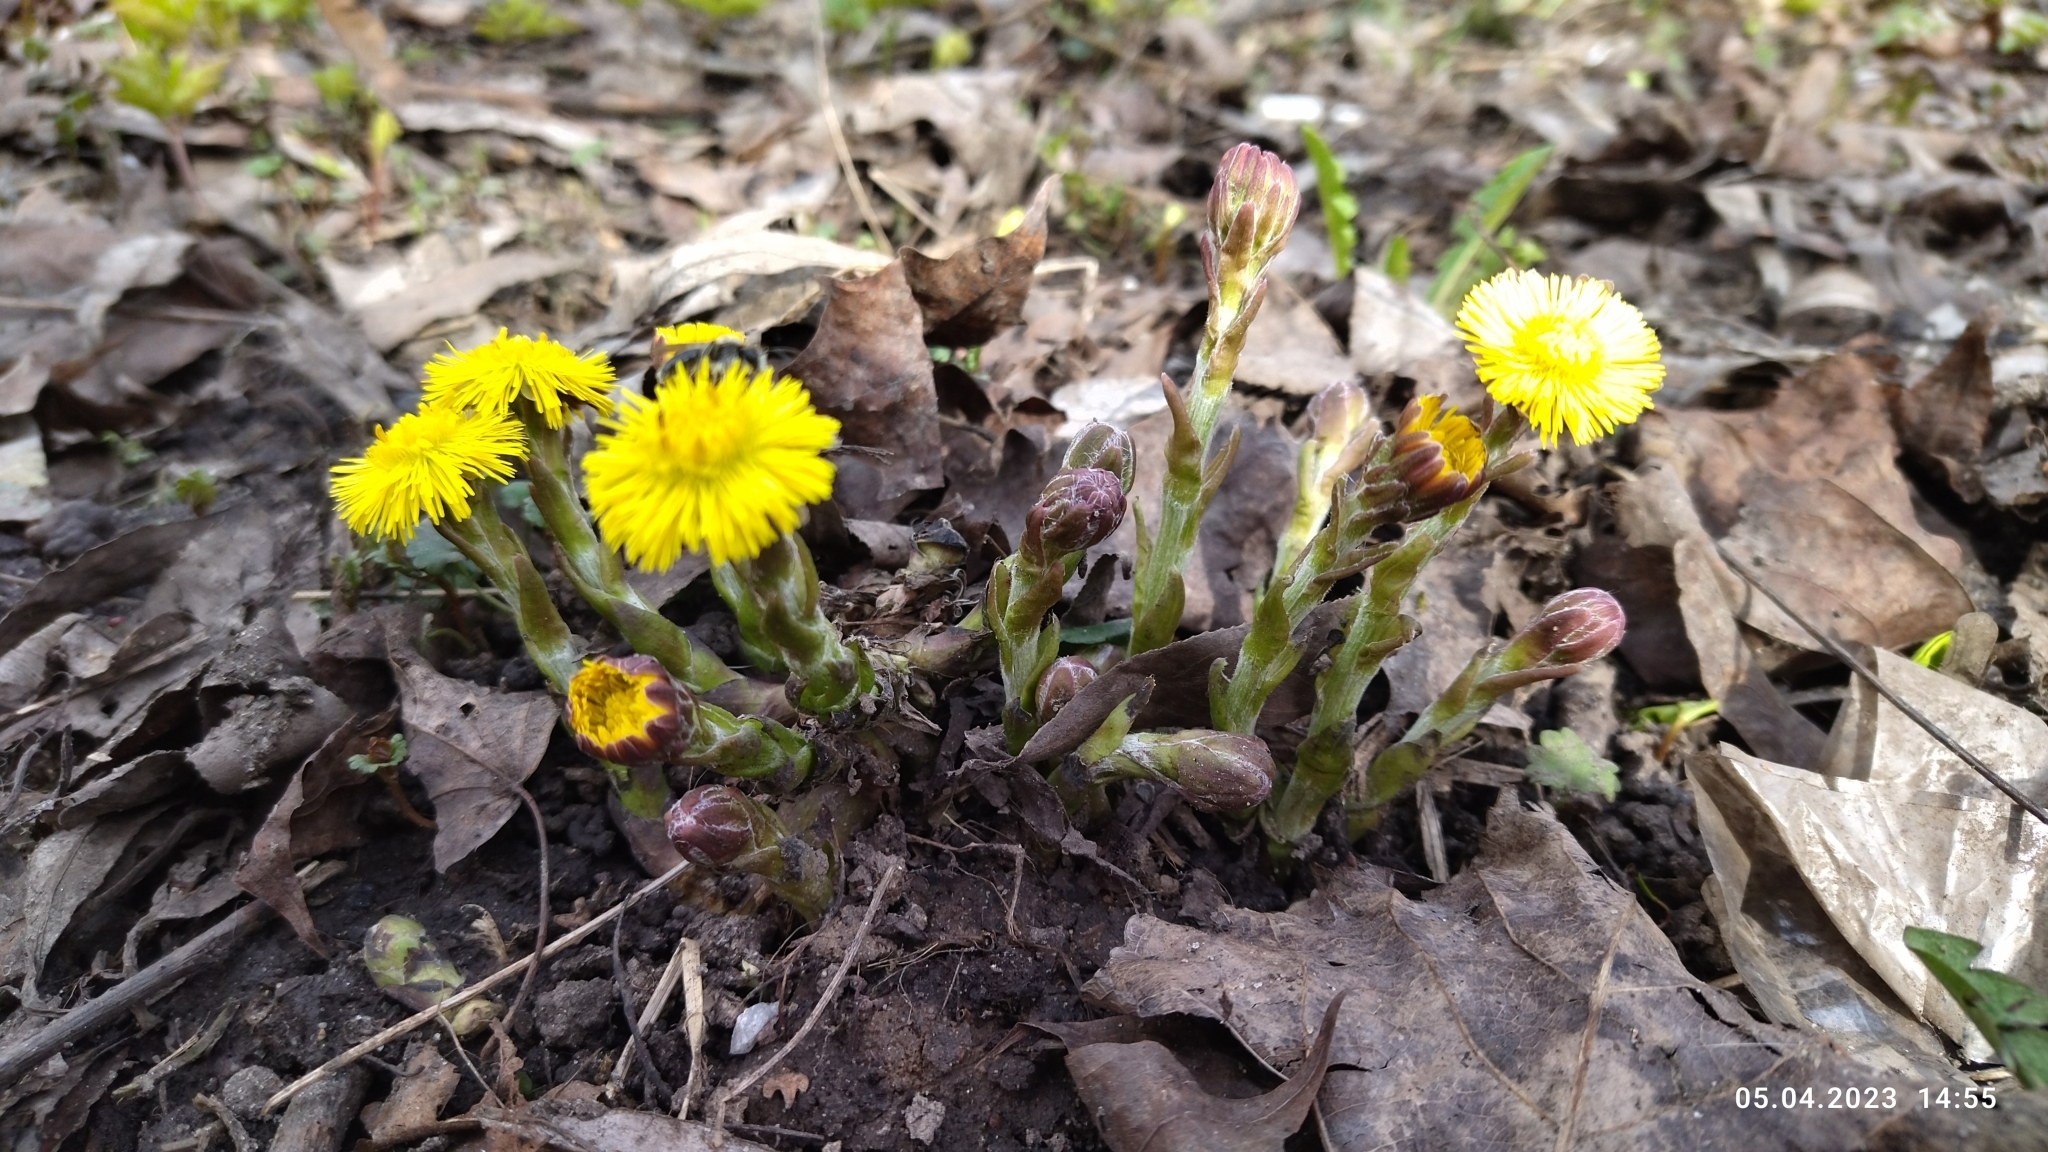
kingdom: Plantae
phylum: Tracheophyta
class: Magnoliopsida
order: Asterales
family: Asteraceae
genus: Tussilago
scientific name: Tussilago farfara
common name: Coltsfoot
